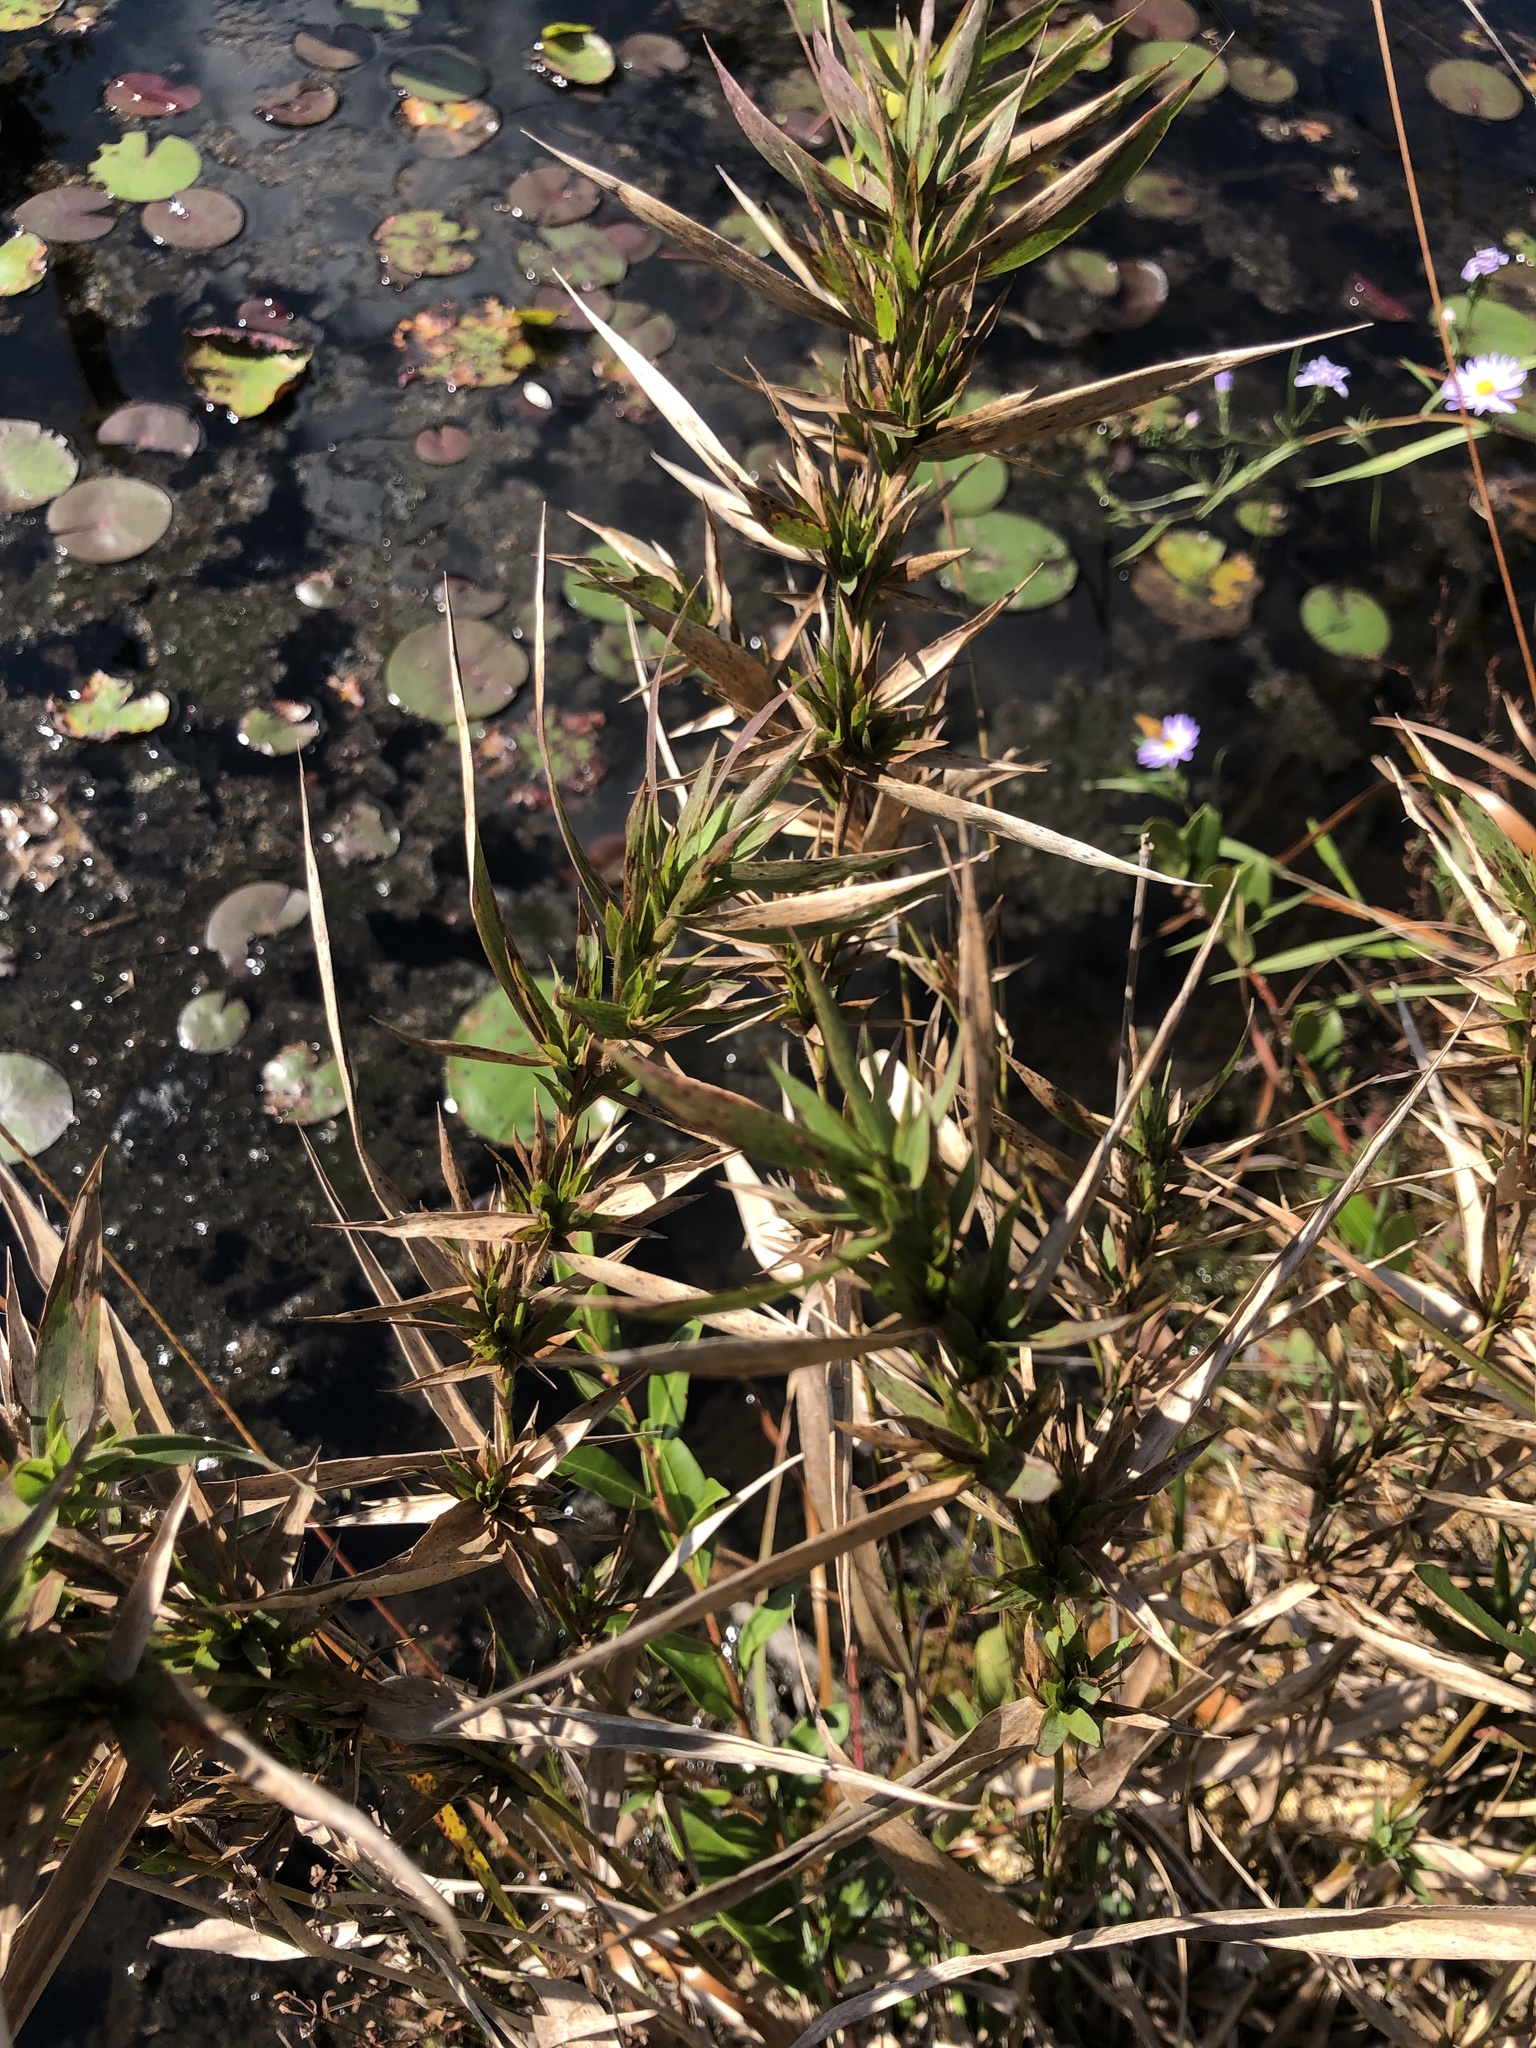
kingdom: Plantae
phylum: Tracheophyta
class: Liliopsida
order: Poales
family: Poaceae
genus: Dichanthelium
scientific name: Dichanthelium scabriusculum
